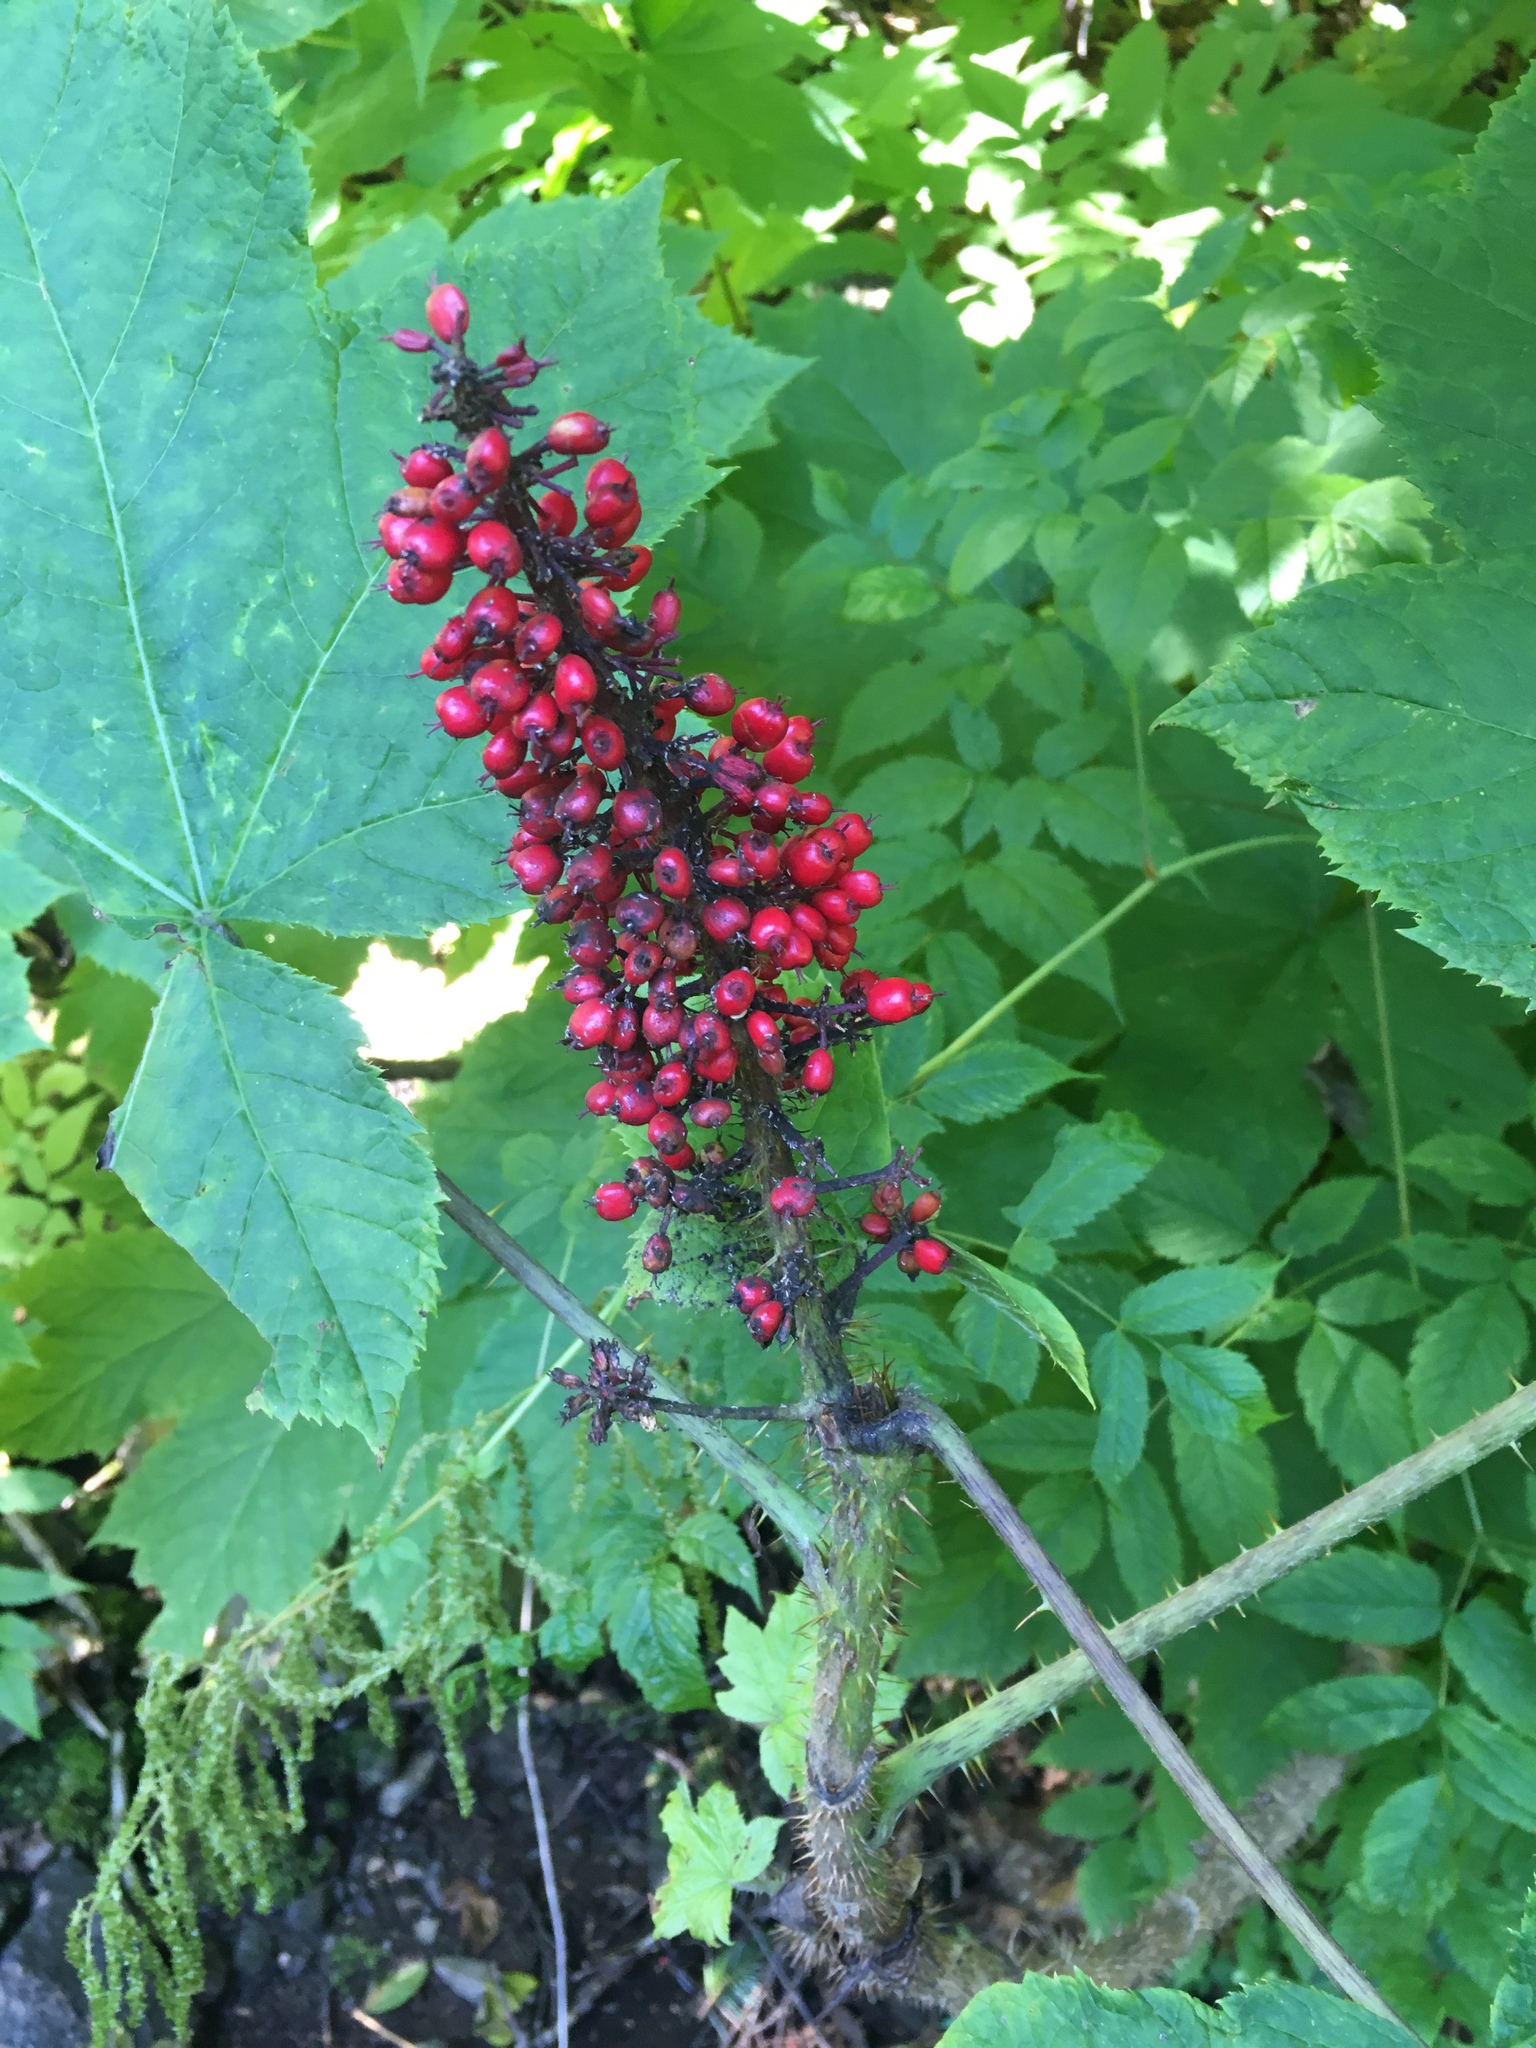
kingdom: Plantae
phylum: Tracheophyta
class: Magnoliopsida
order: Apiales
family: Araliaceae
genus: Oplopanax
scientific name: Oplopanax horridus
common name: Devil's walking-stick
